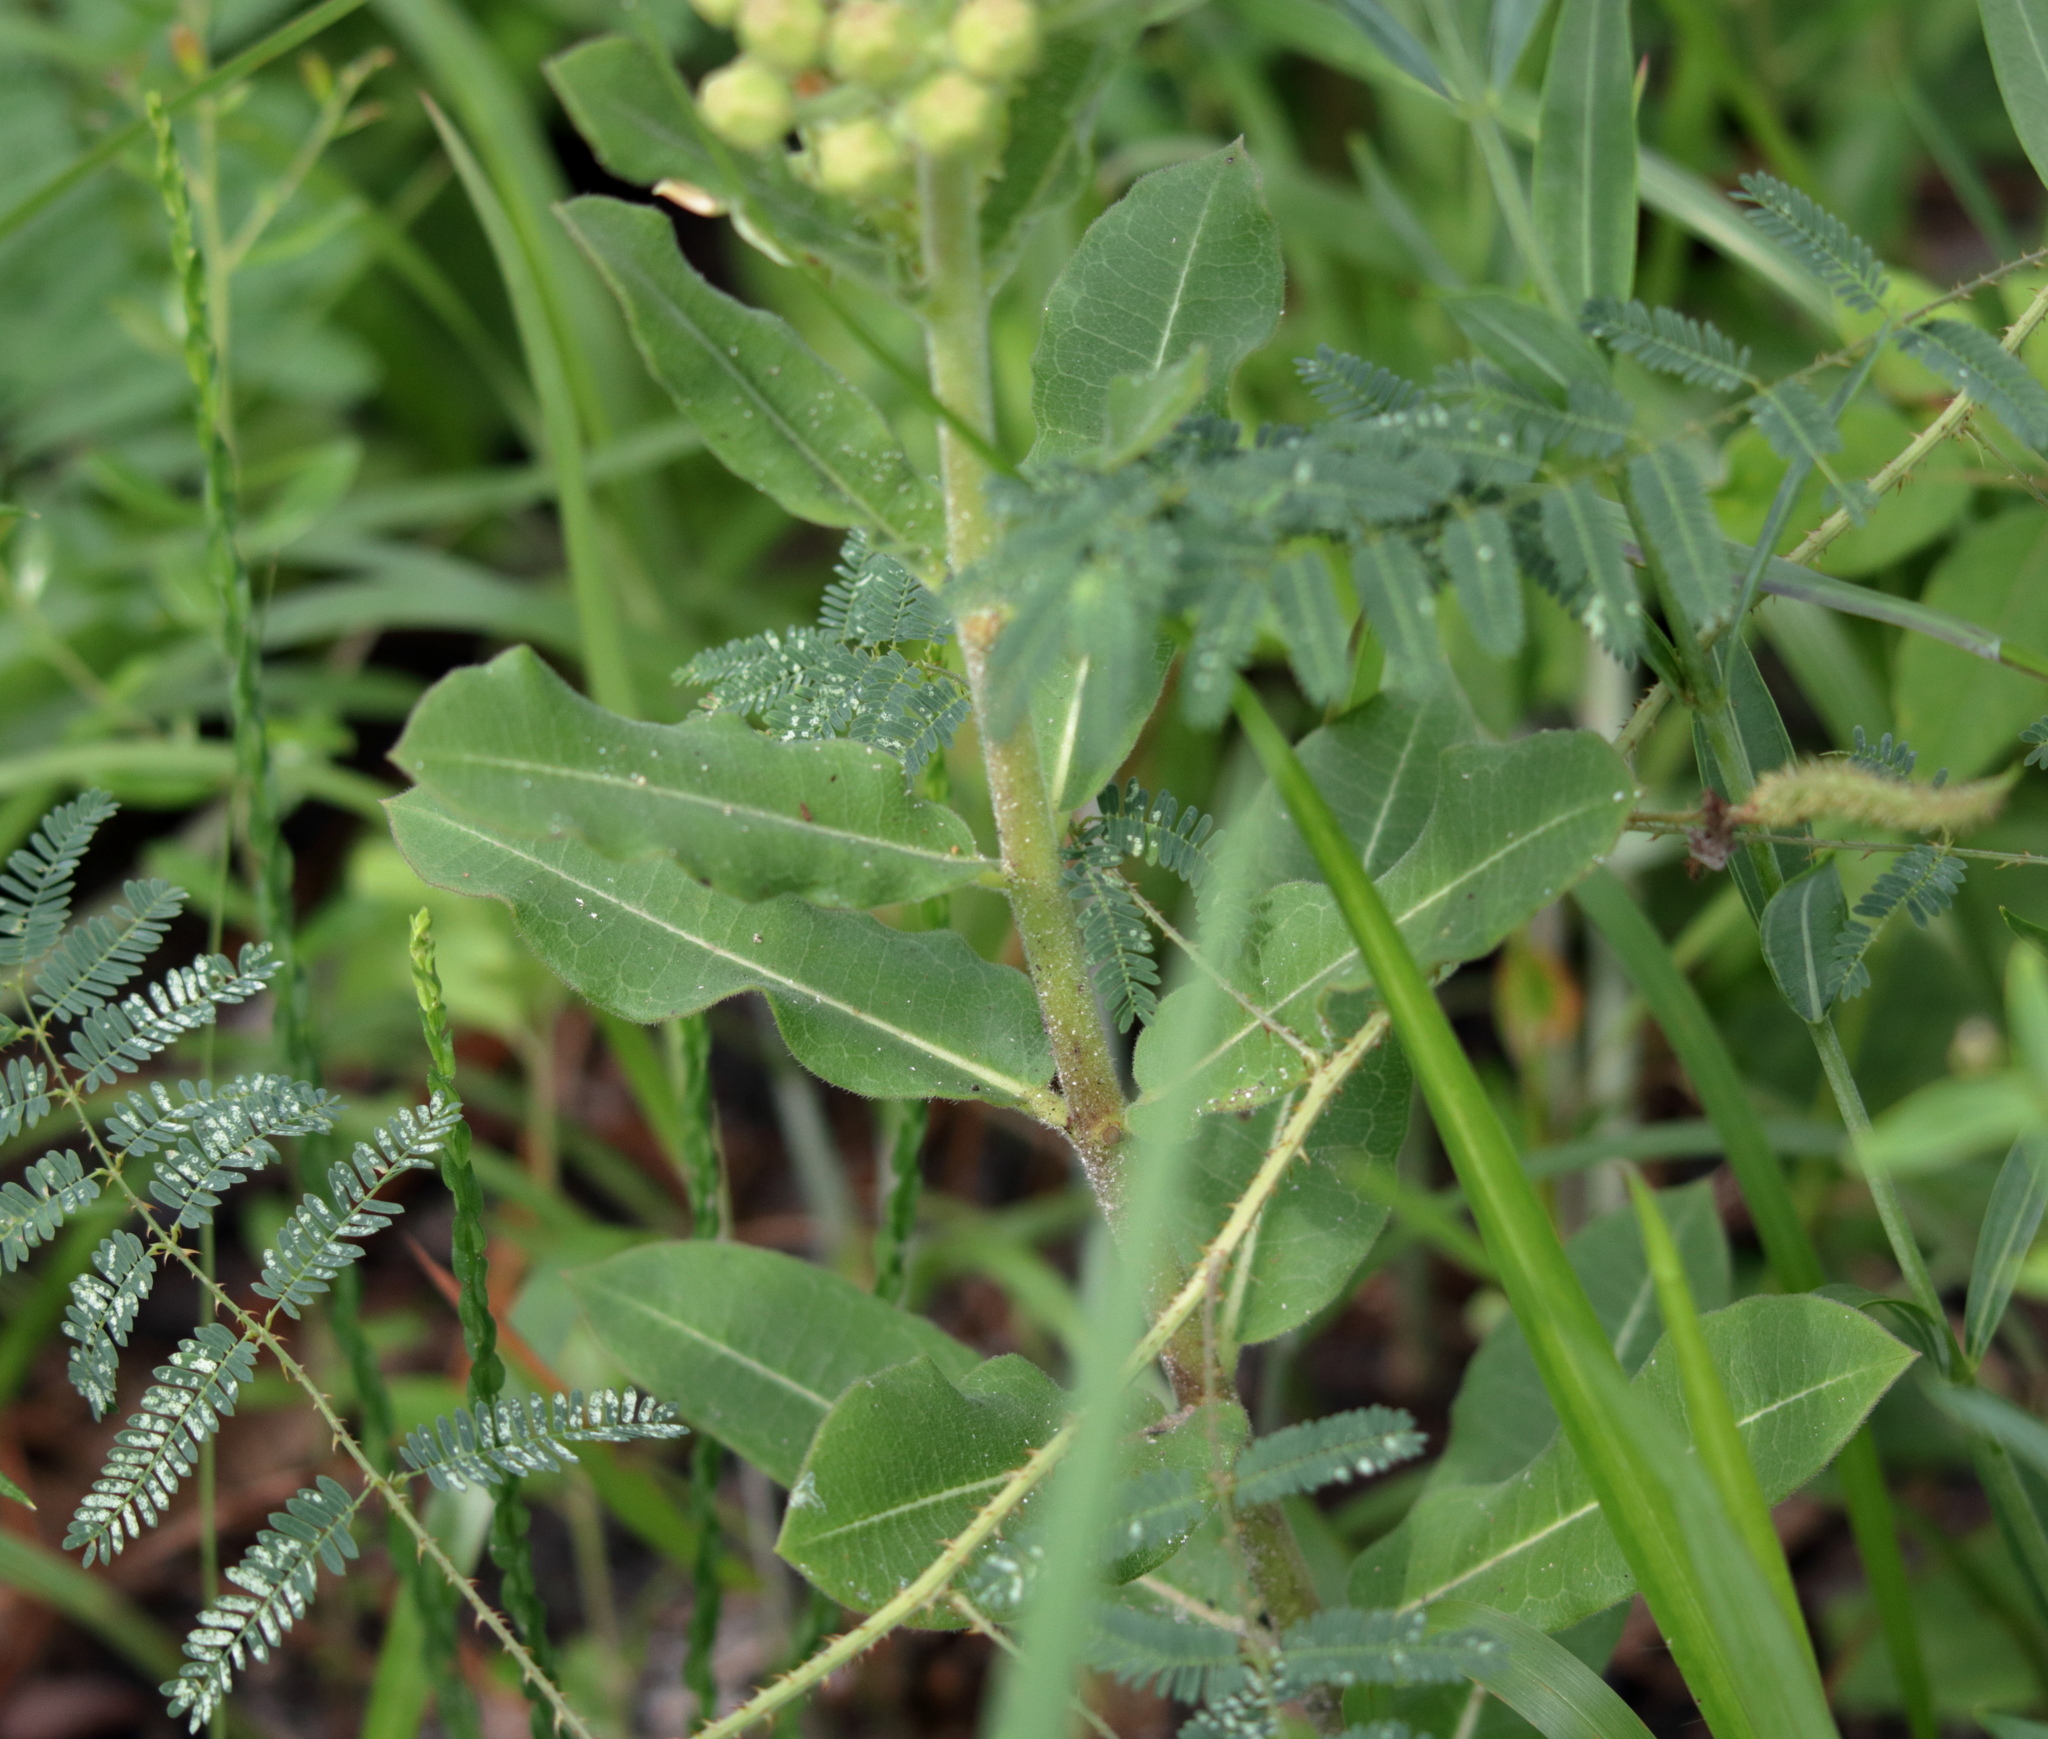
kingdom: Plantae
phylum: Tracheophyta
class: Magnoliopsida
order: Gentianales
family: Apocynaceae
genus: Asclepias
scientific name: Asclepias obovata
